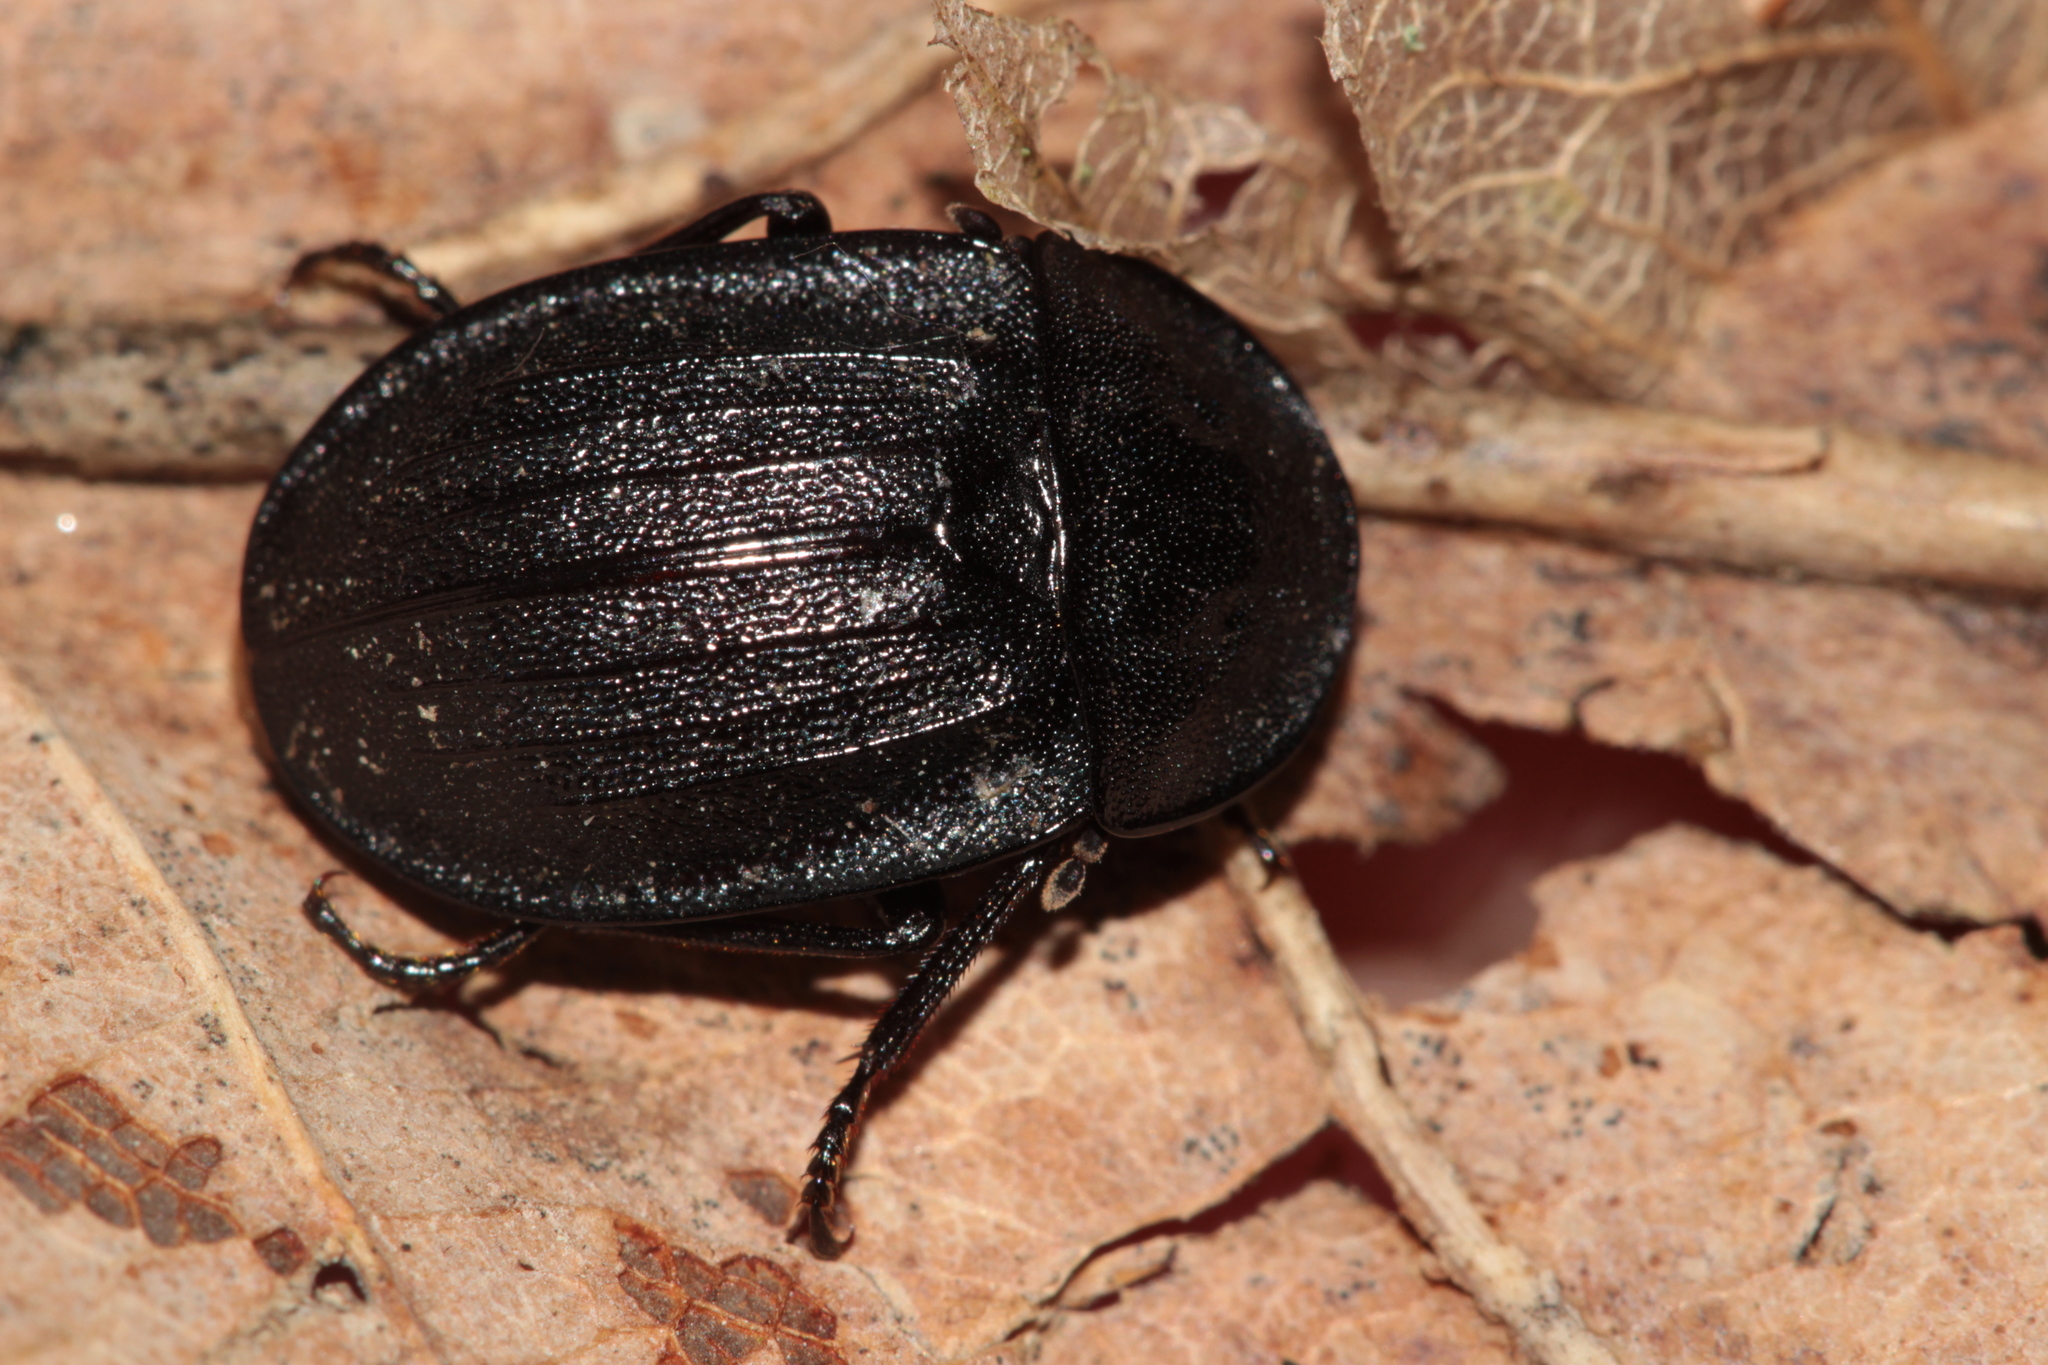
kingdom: Animalia
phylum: Arthropoda
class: Insecta
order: Coleoptera
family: Staphylinidae
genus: Silpha
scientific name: Silpha atrata
